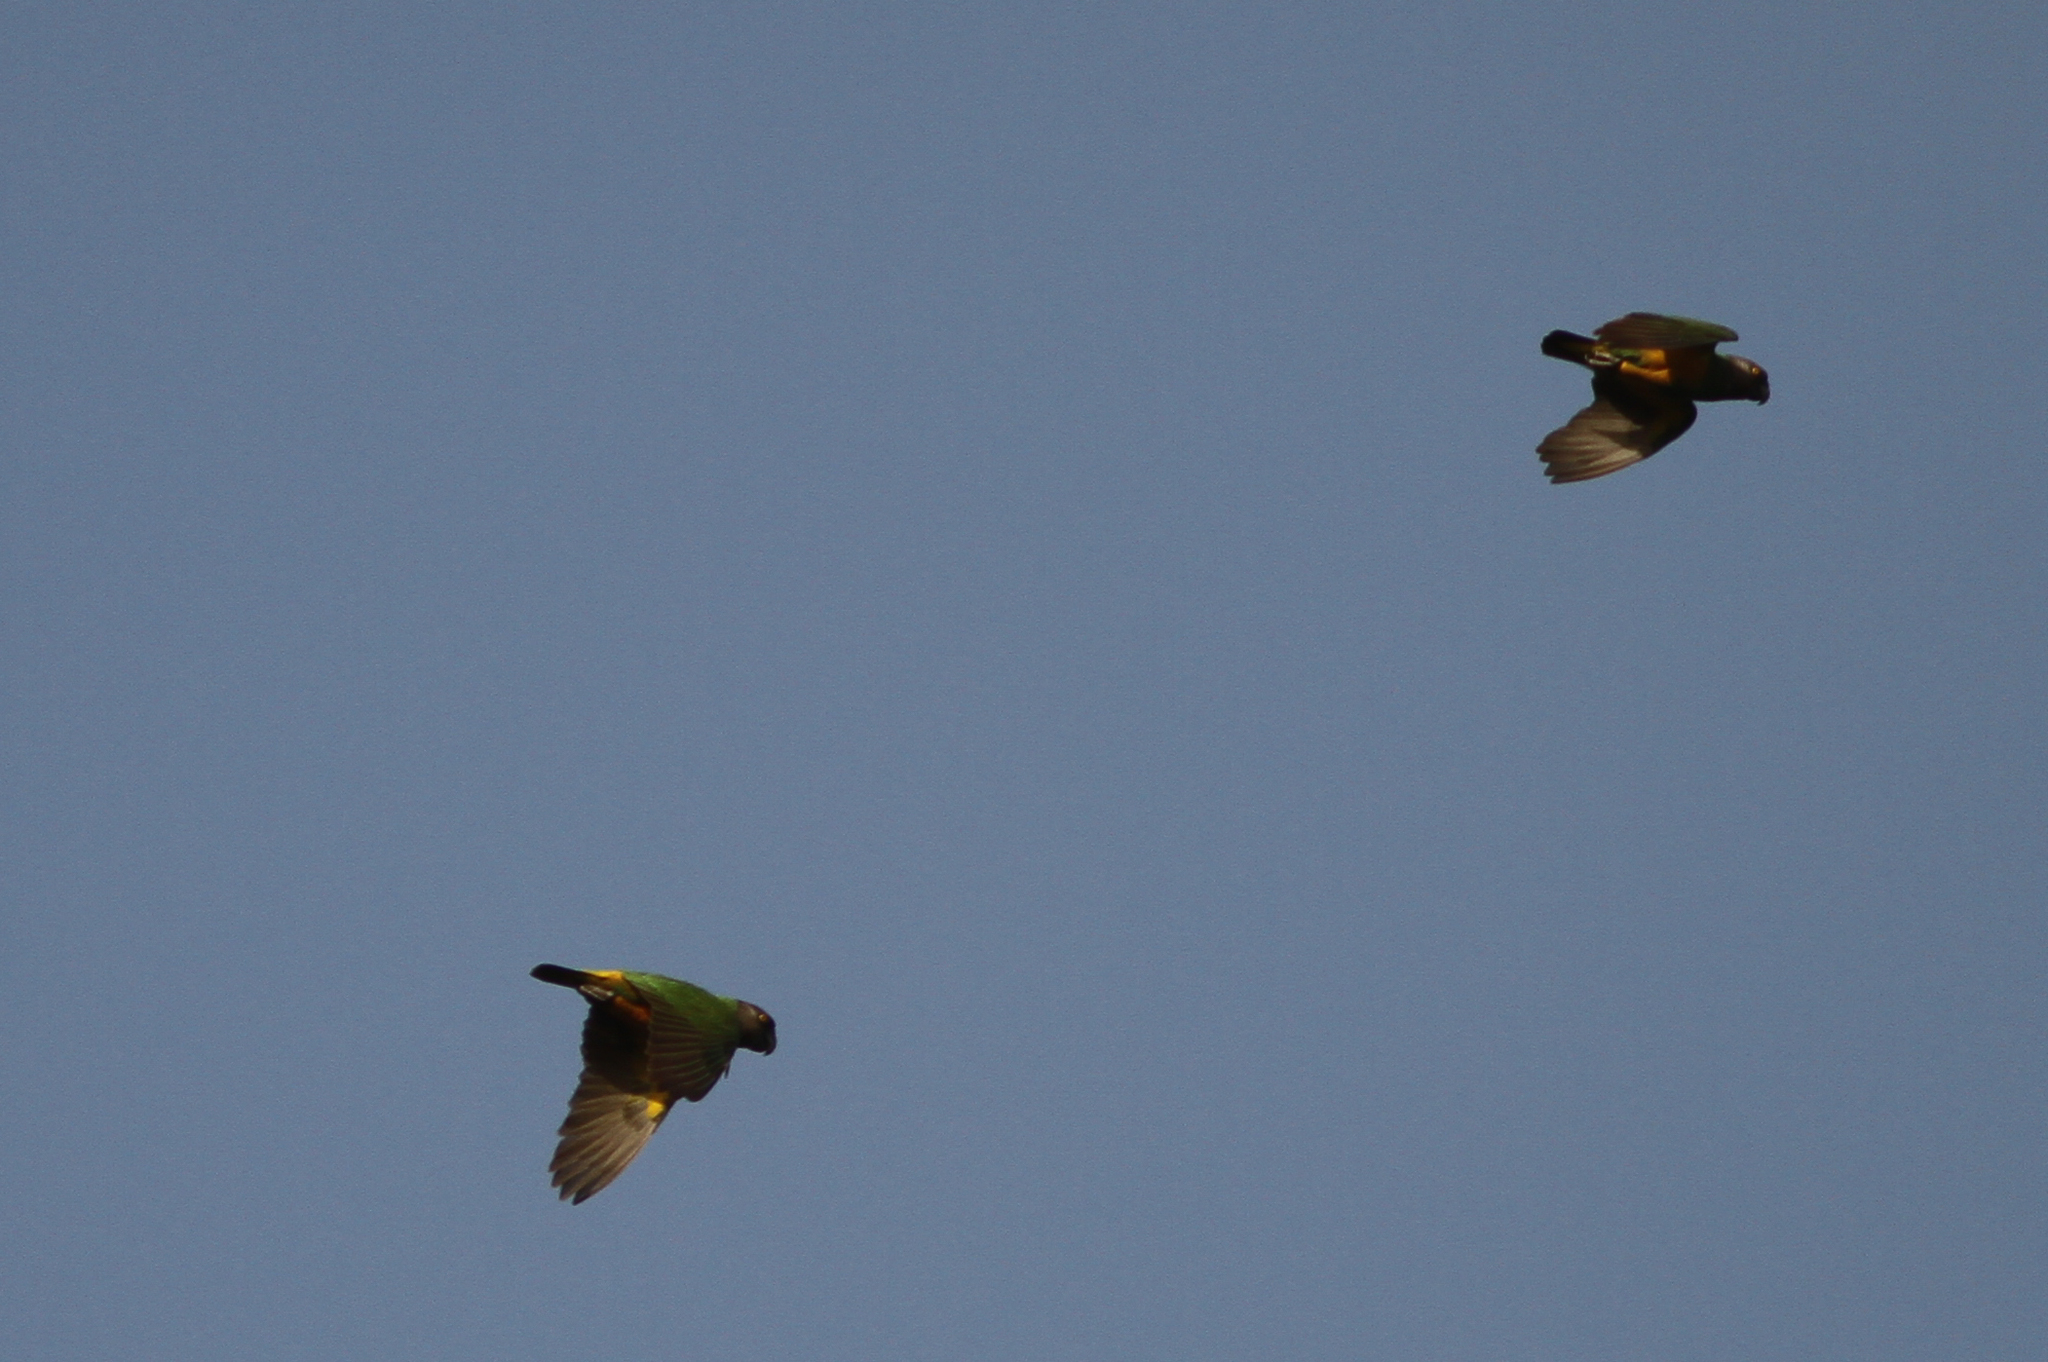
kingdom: Animalia
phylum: Chordata
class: Aves
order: Psittaciformes
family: Psittacidae
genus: Poicephalus
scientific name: Poicephalus senegalus
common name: Senegal parrot
